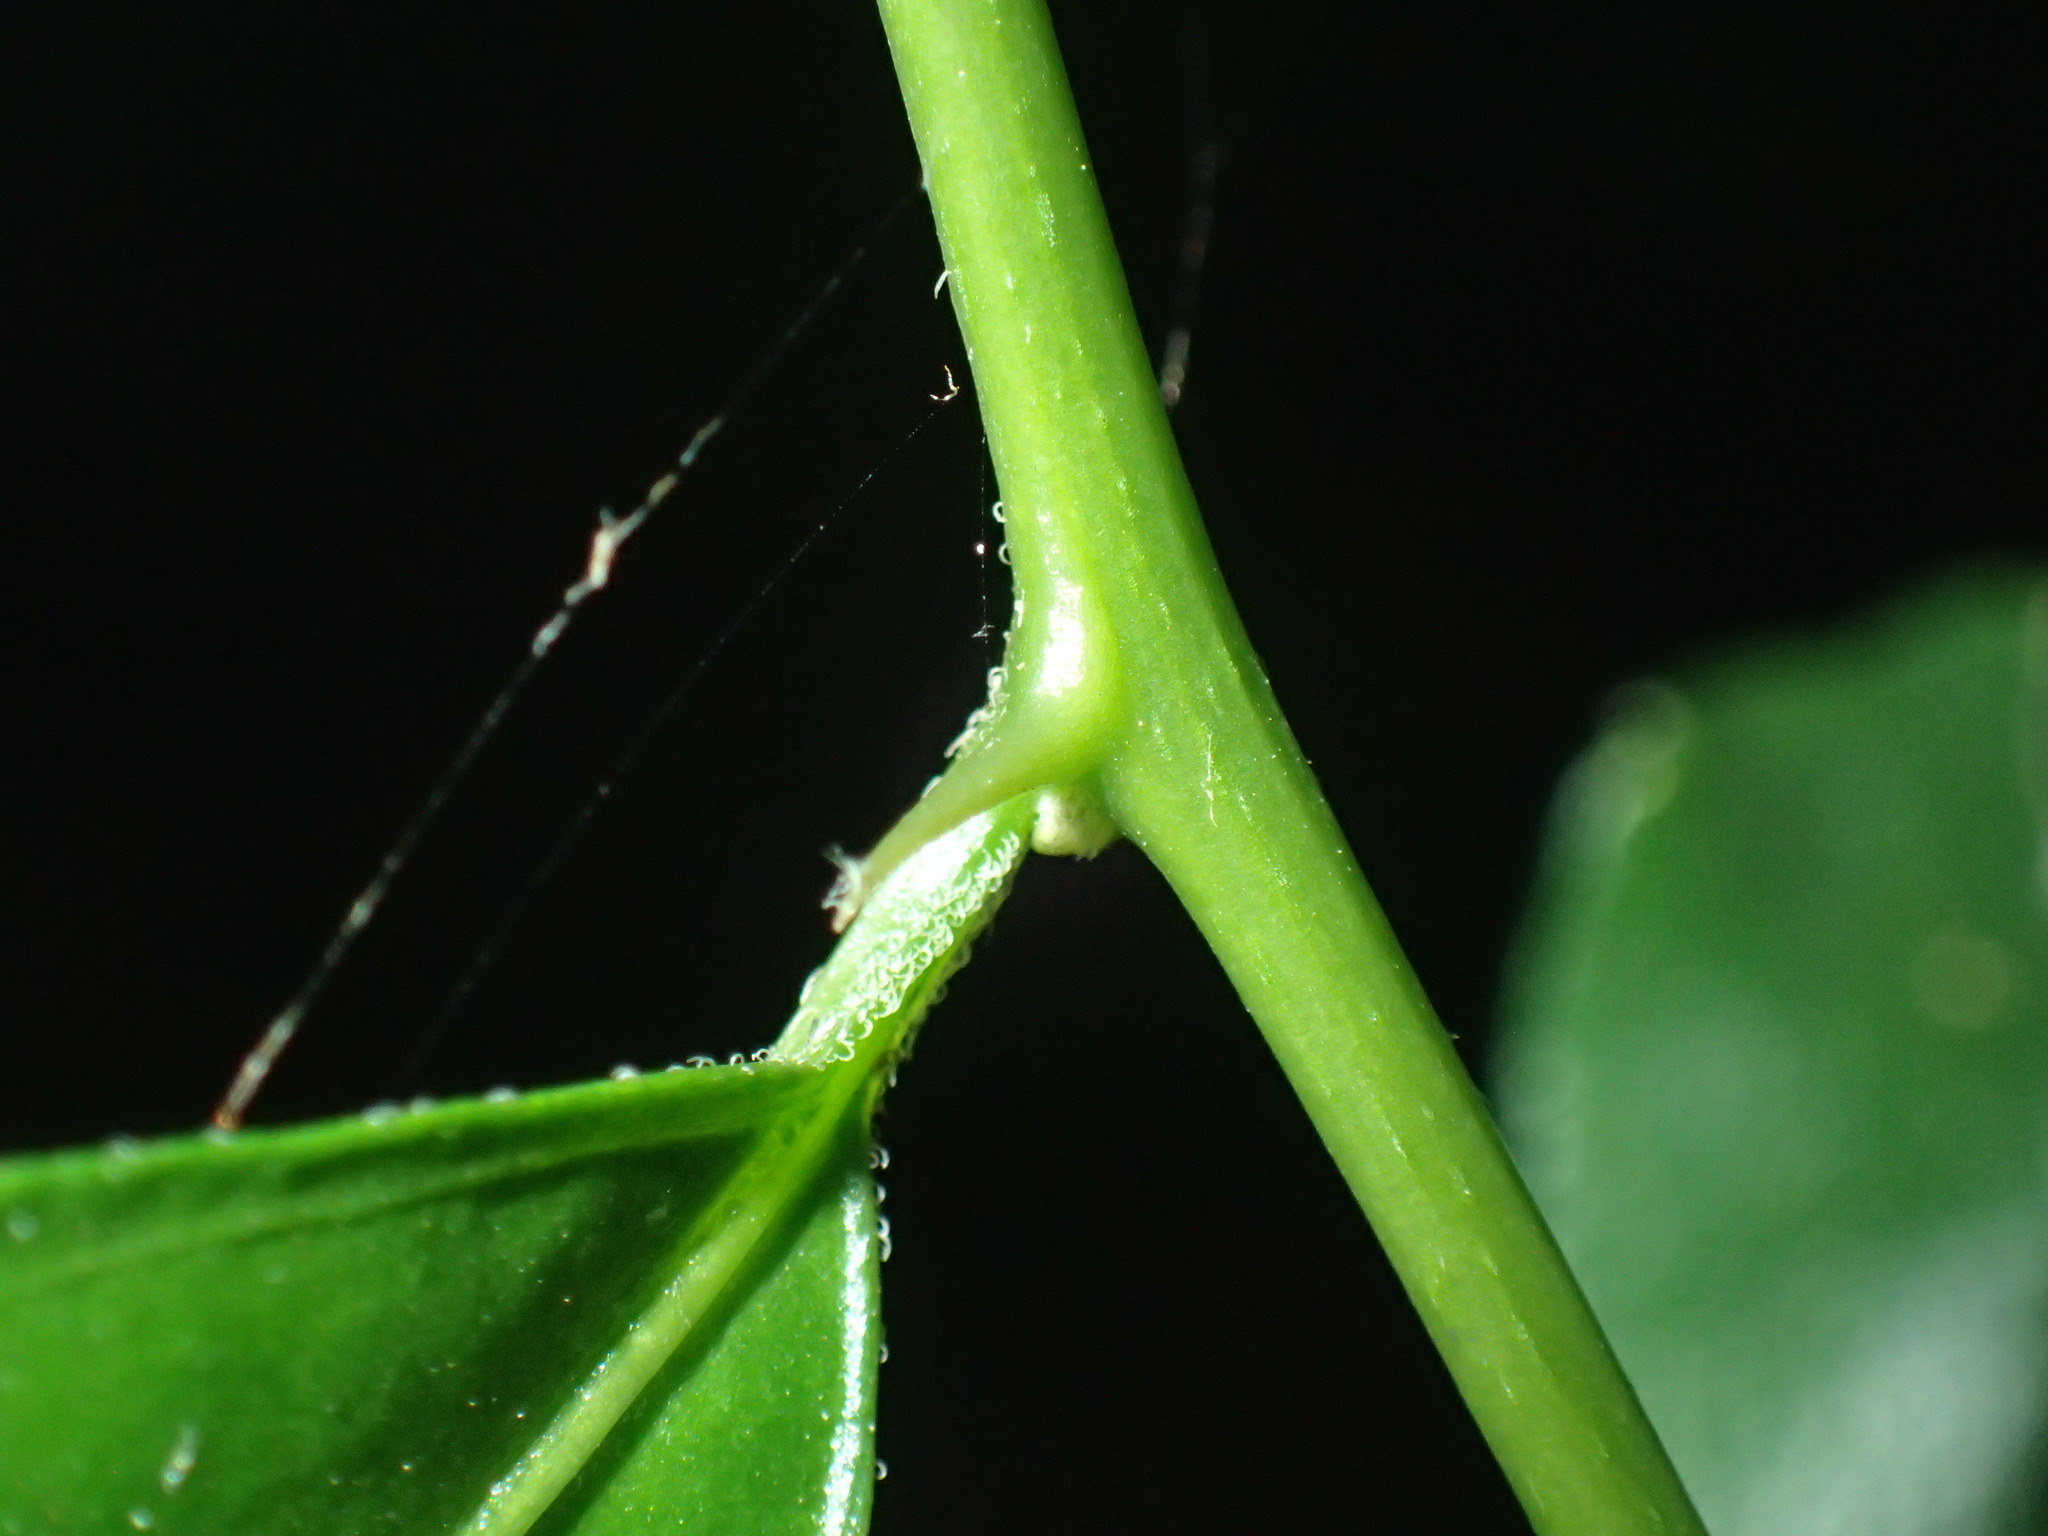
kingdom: Plantae
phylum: Tracheophyta
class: Magnoliopsida
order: Malpighiales
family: Euphorbiaceae
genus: Erythrococca
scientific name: Erythrococca berberidea
